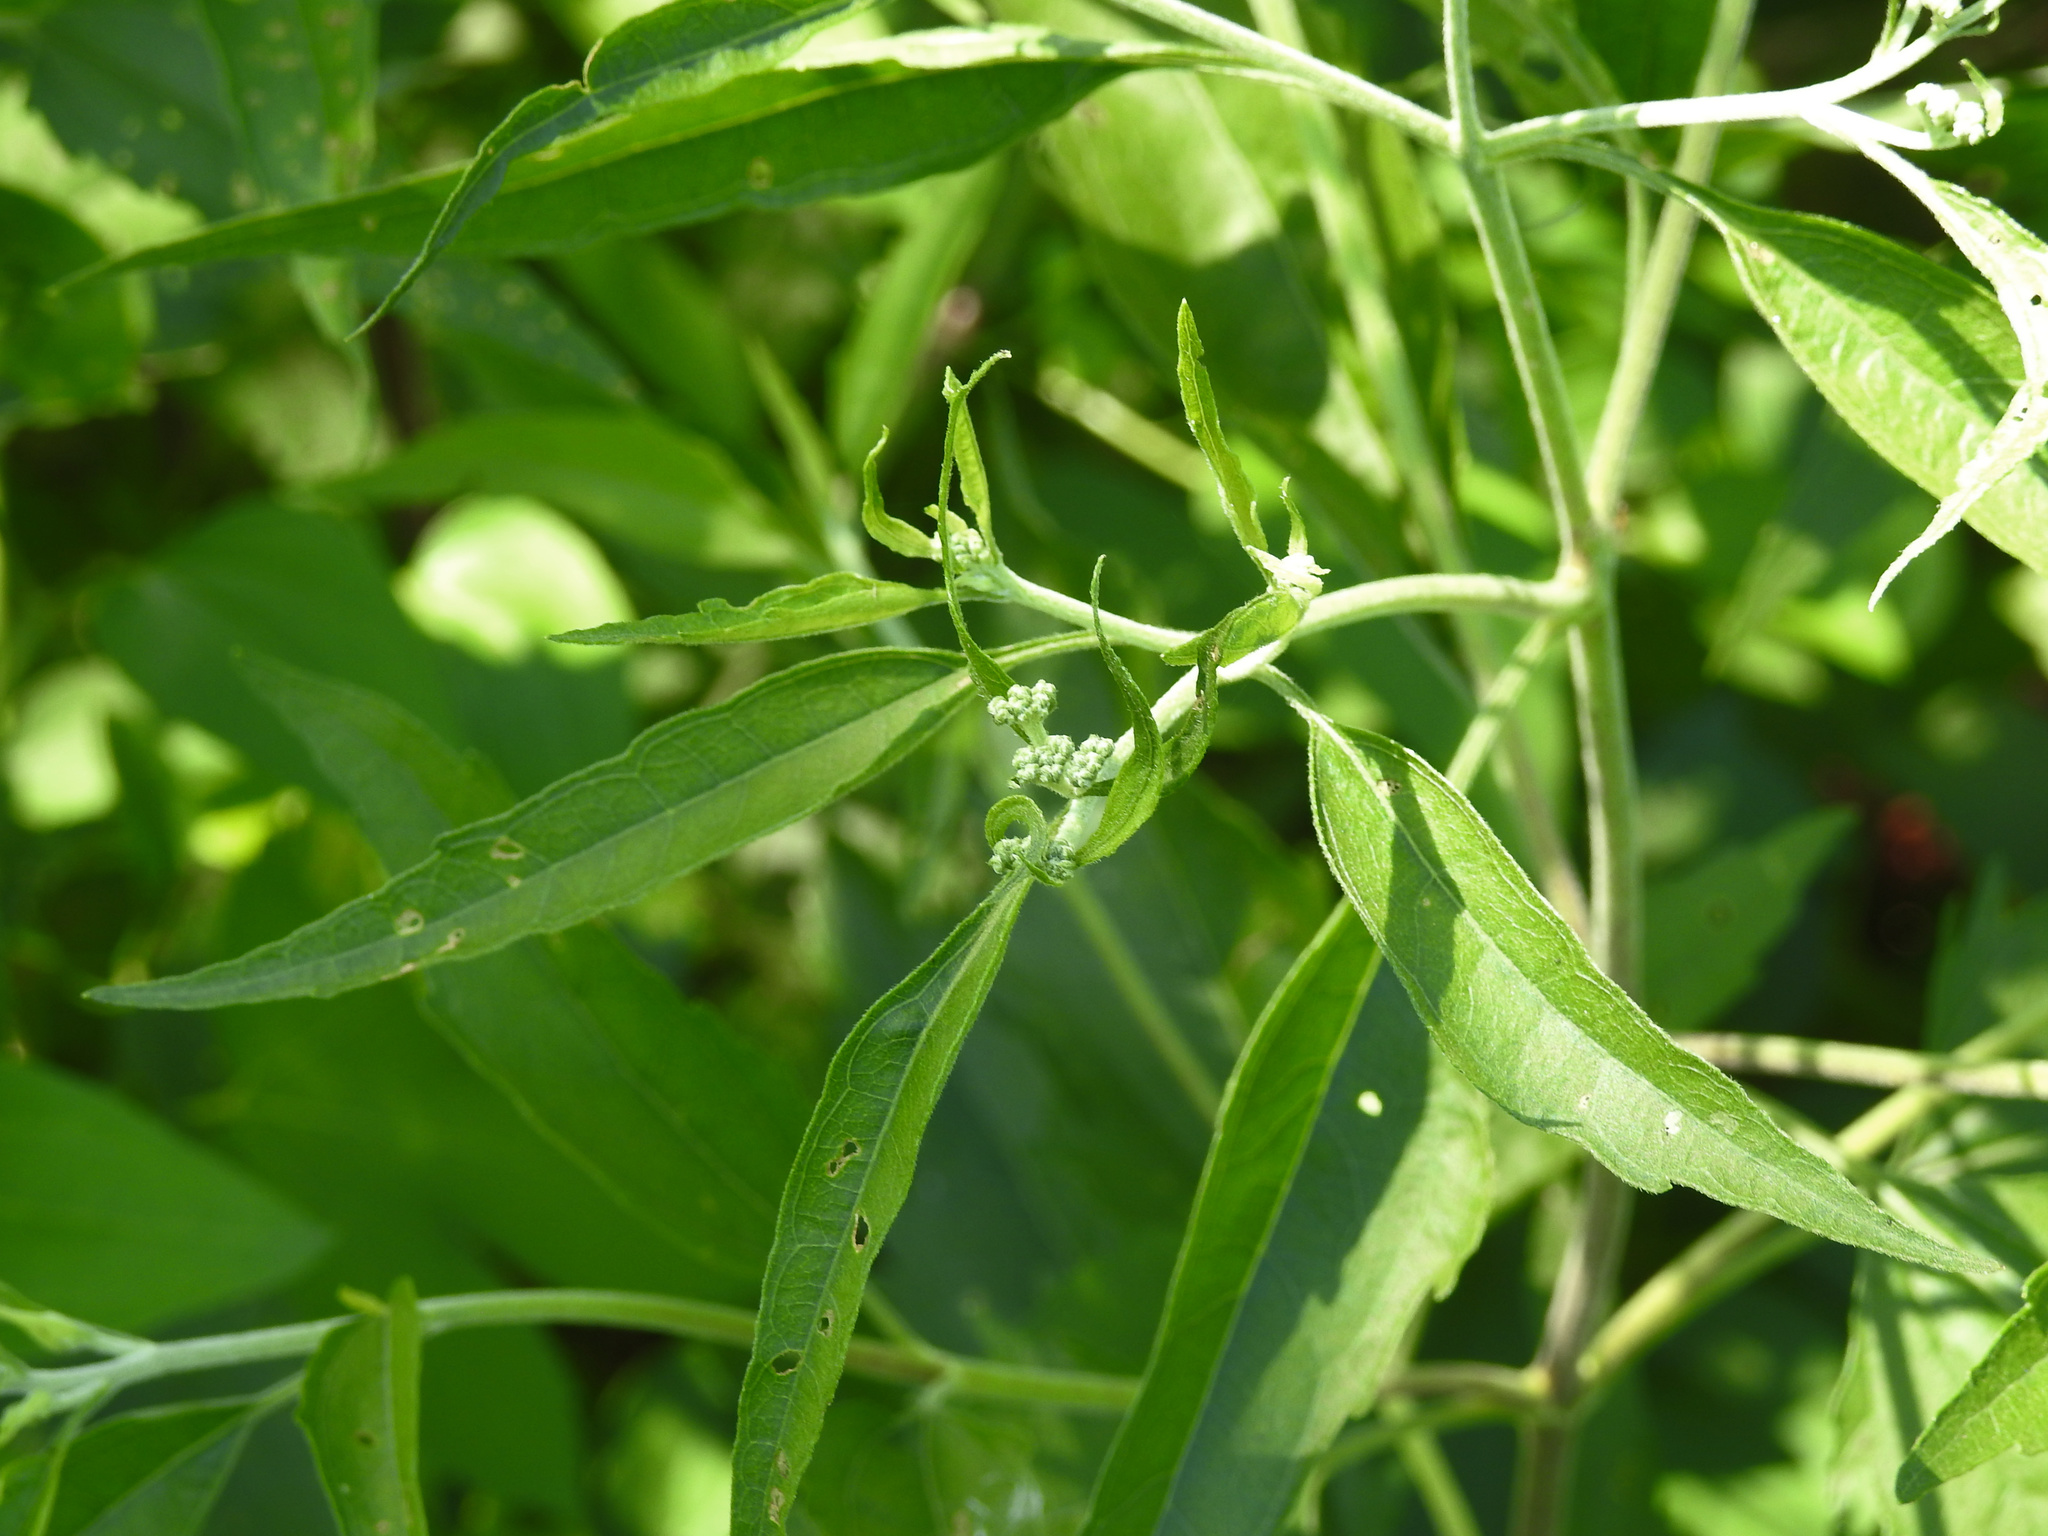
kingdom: Plantae
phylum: Tracheophyta
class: Magnoliopsida
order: Asterales
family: Asteraceae
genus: Eupatorium
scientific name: Eupatorium serotinum
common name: Late boneset
